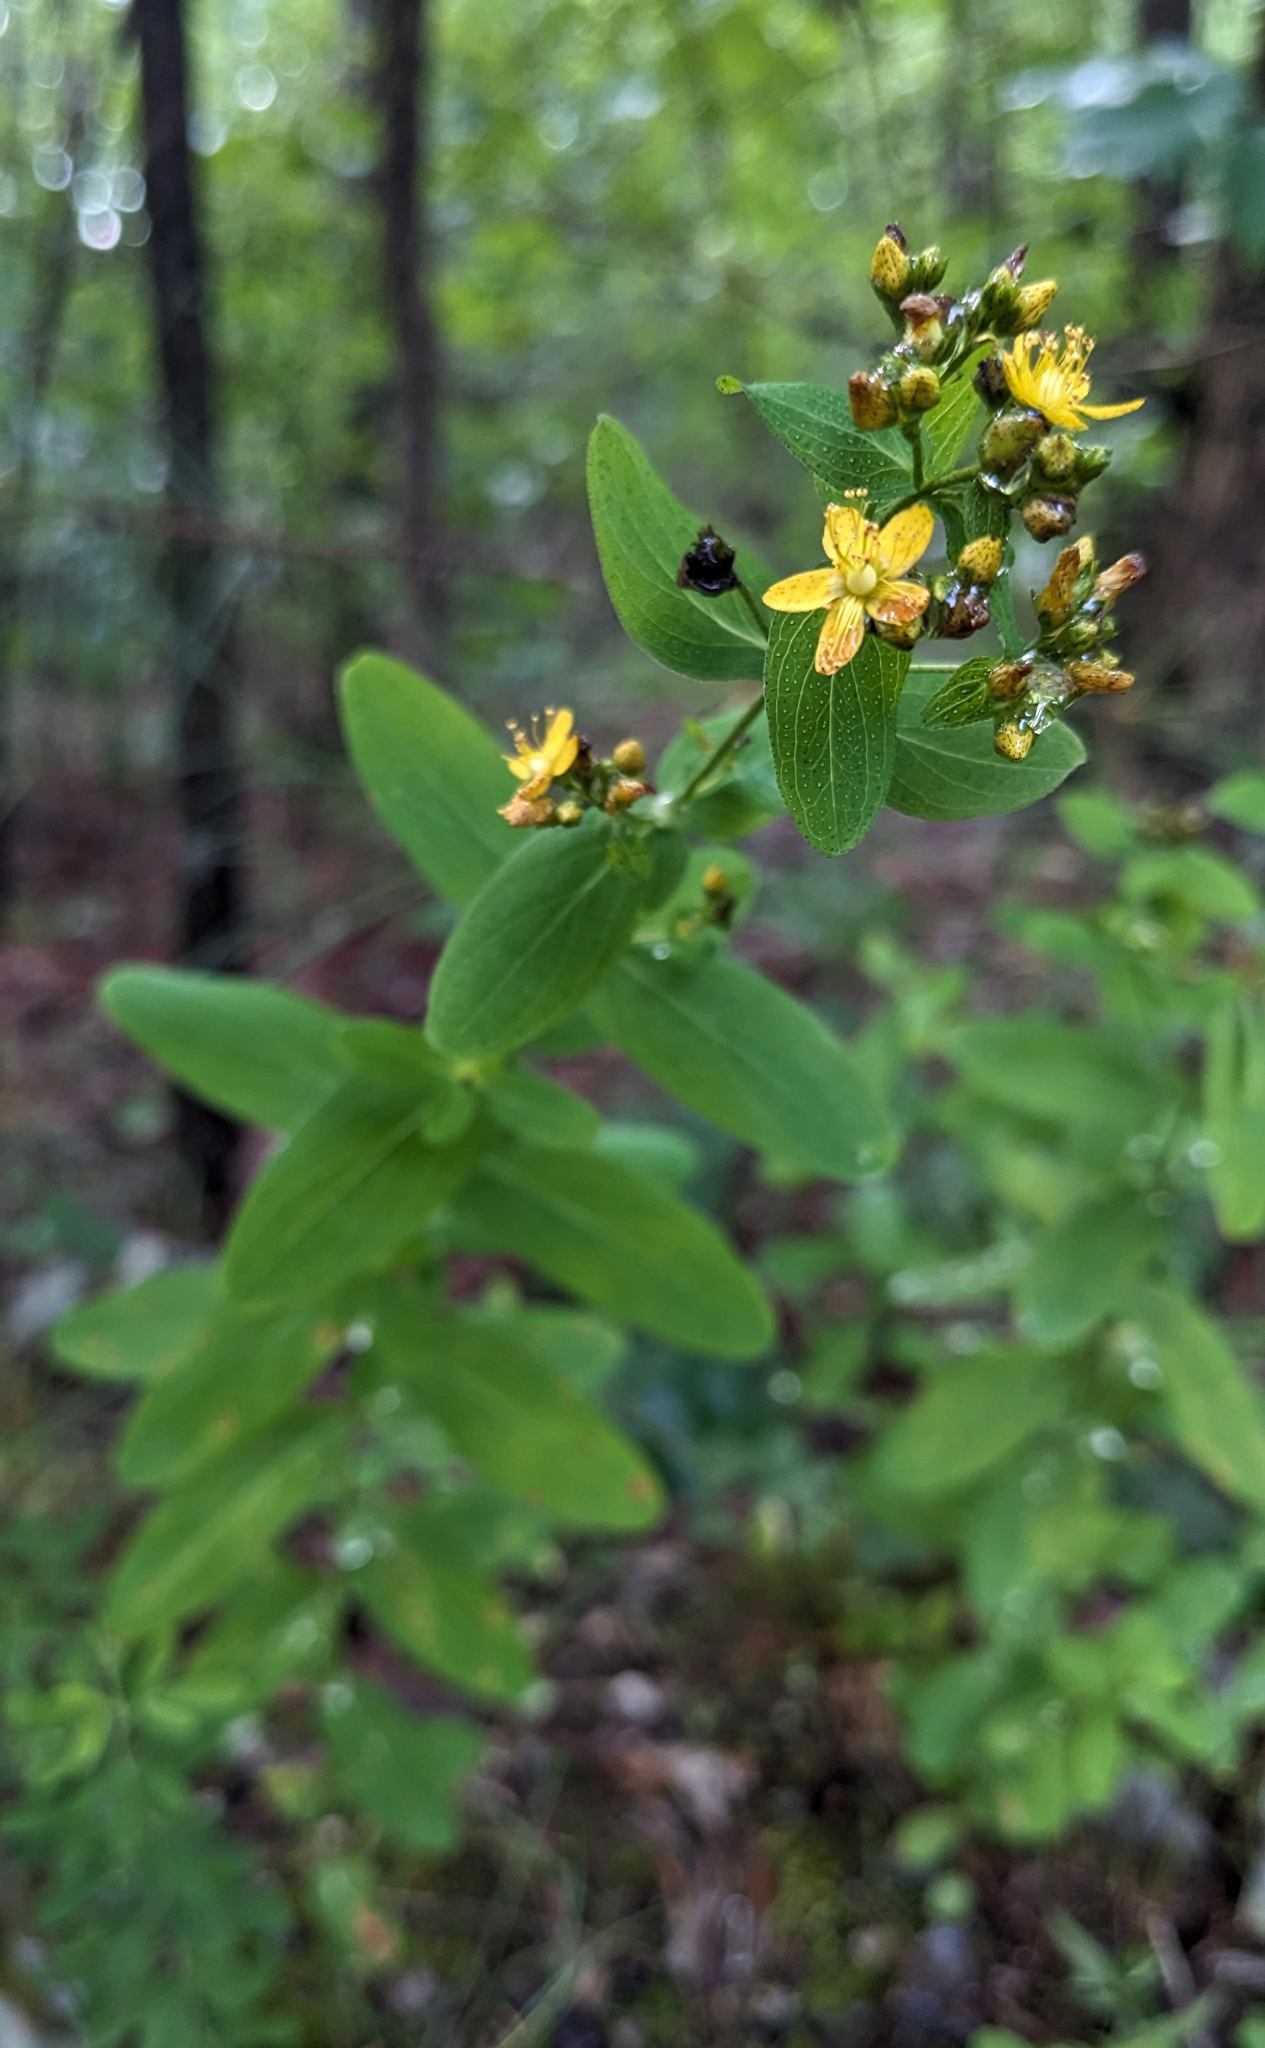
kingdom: Plantae
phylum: Tracheophyta
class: Magnoliopsida
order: Malpighiales
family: Hypericaceae
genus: Hypericum
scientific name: Hypericum punctatum
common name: Spotted st. john's-wort
